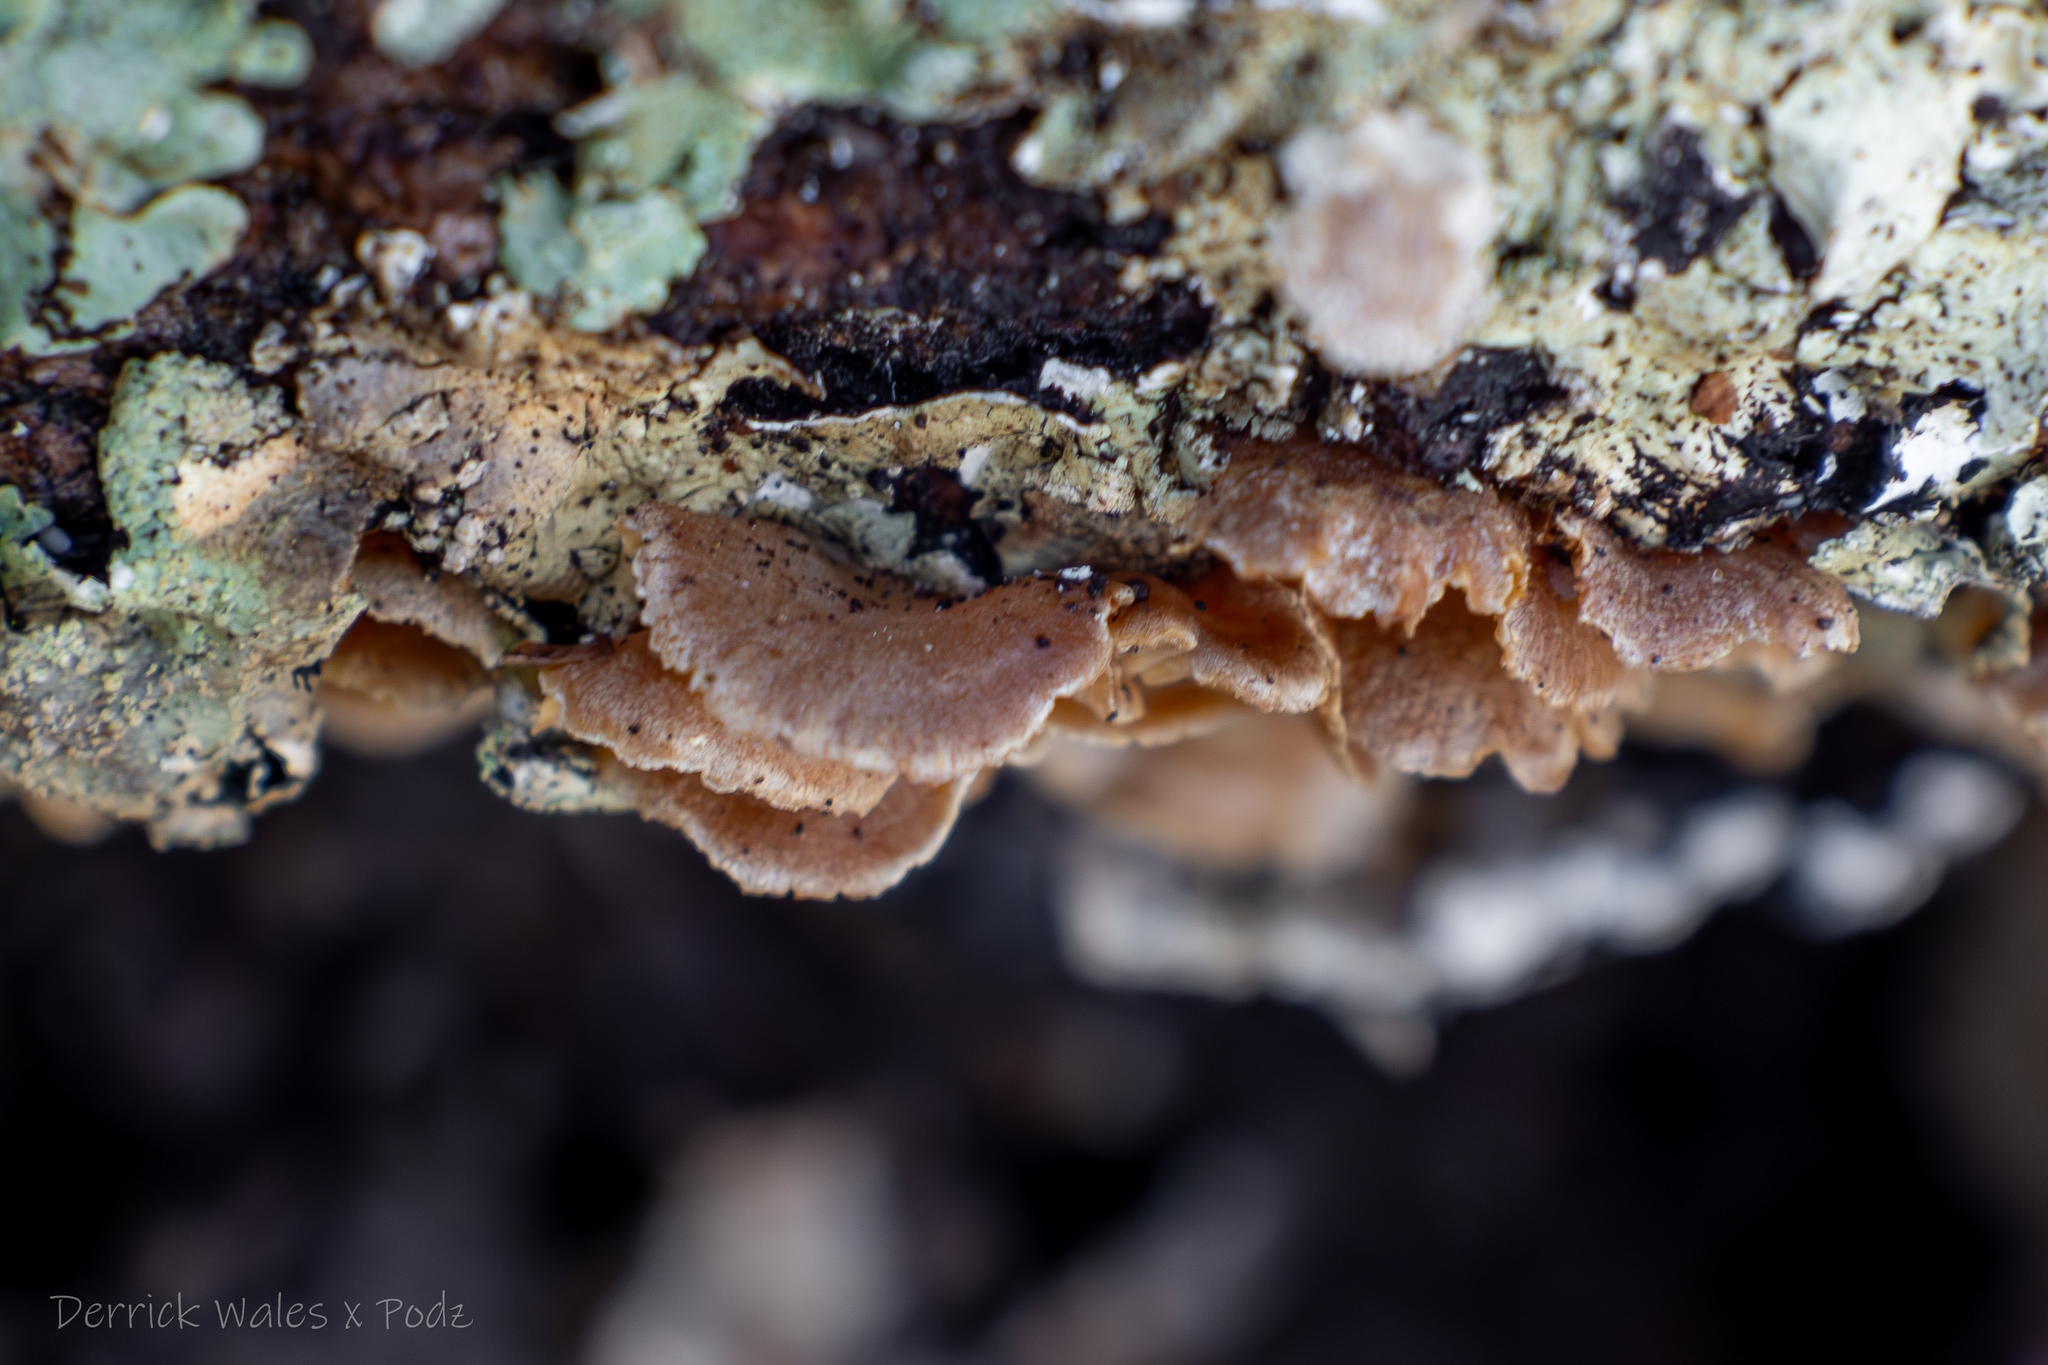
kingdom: Fungi
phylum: Basidiomycota
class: Agaricomycetes
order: Agaricales
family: Mycenaceae
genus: Panellus
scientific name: Panellus stipticus
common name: Bitter oysterling
